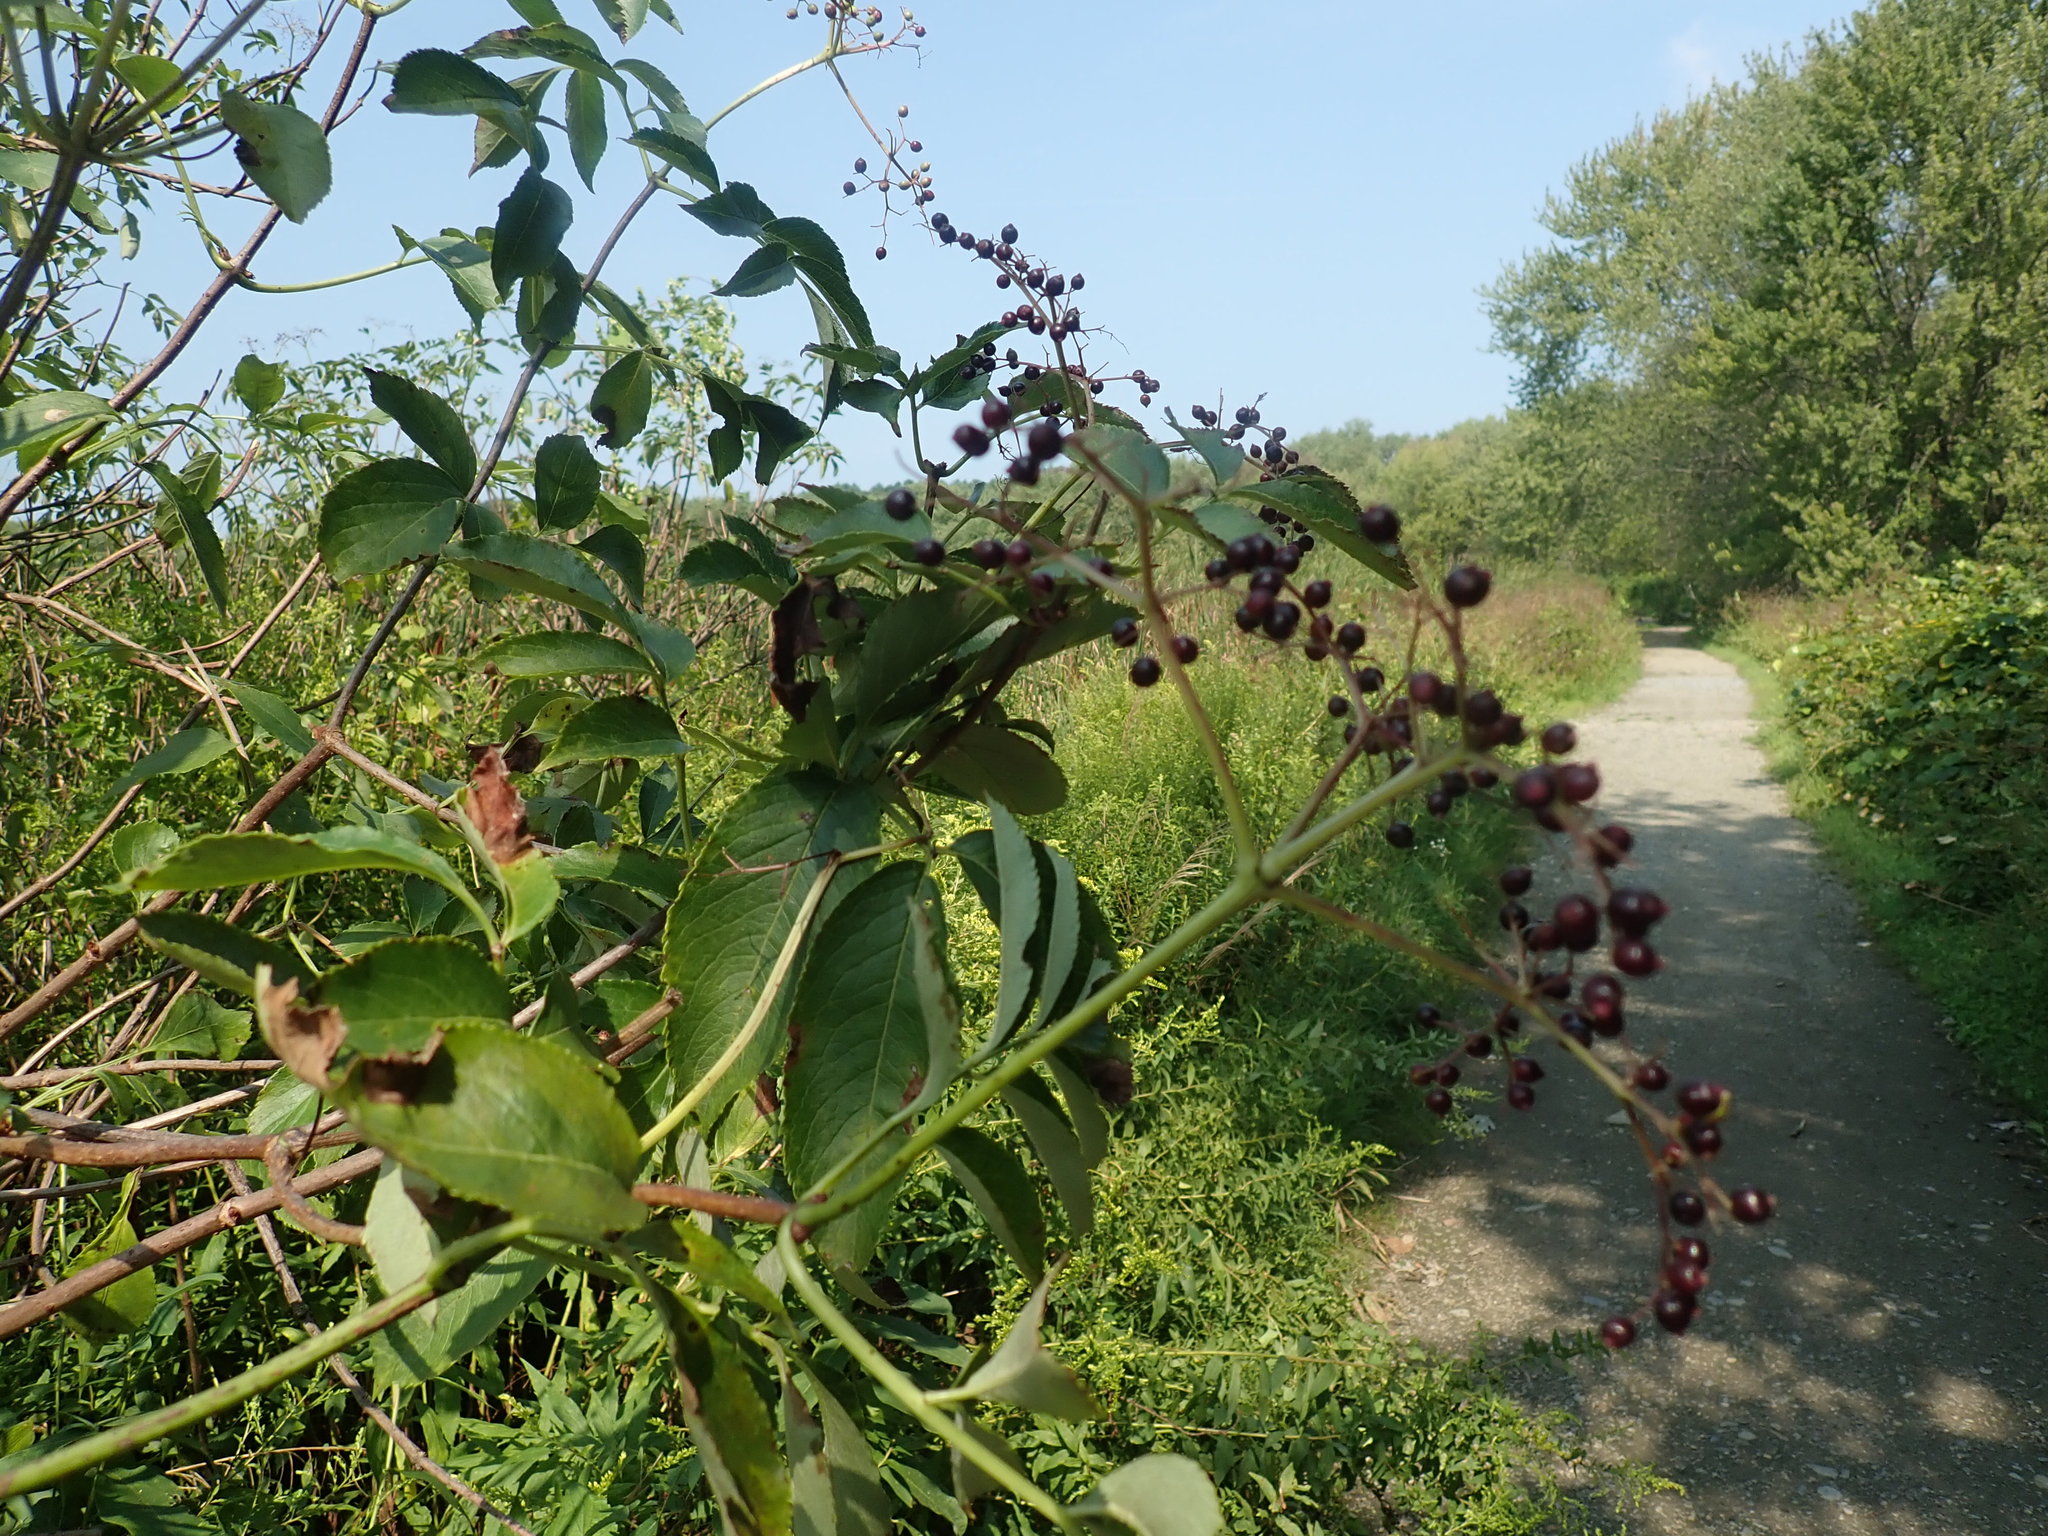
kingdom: Plantae
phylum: Tracheophyta
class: Magnoliopsida
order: Dipsacales
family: Viburnaceae
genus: Sambucus
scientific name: Sambucus canadensis
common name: American elder
